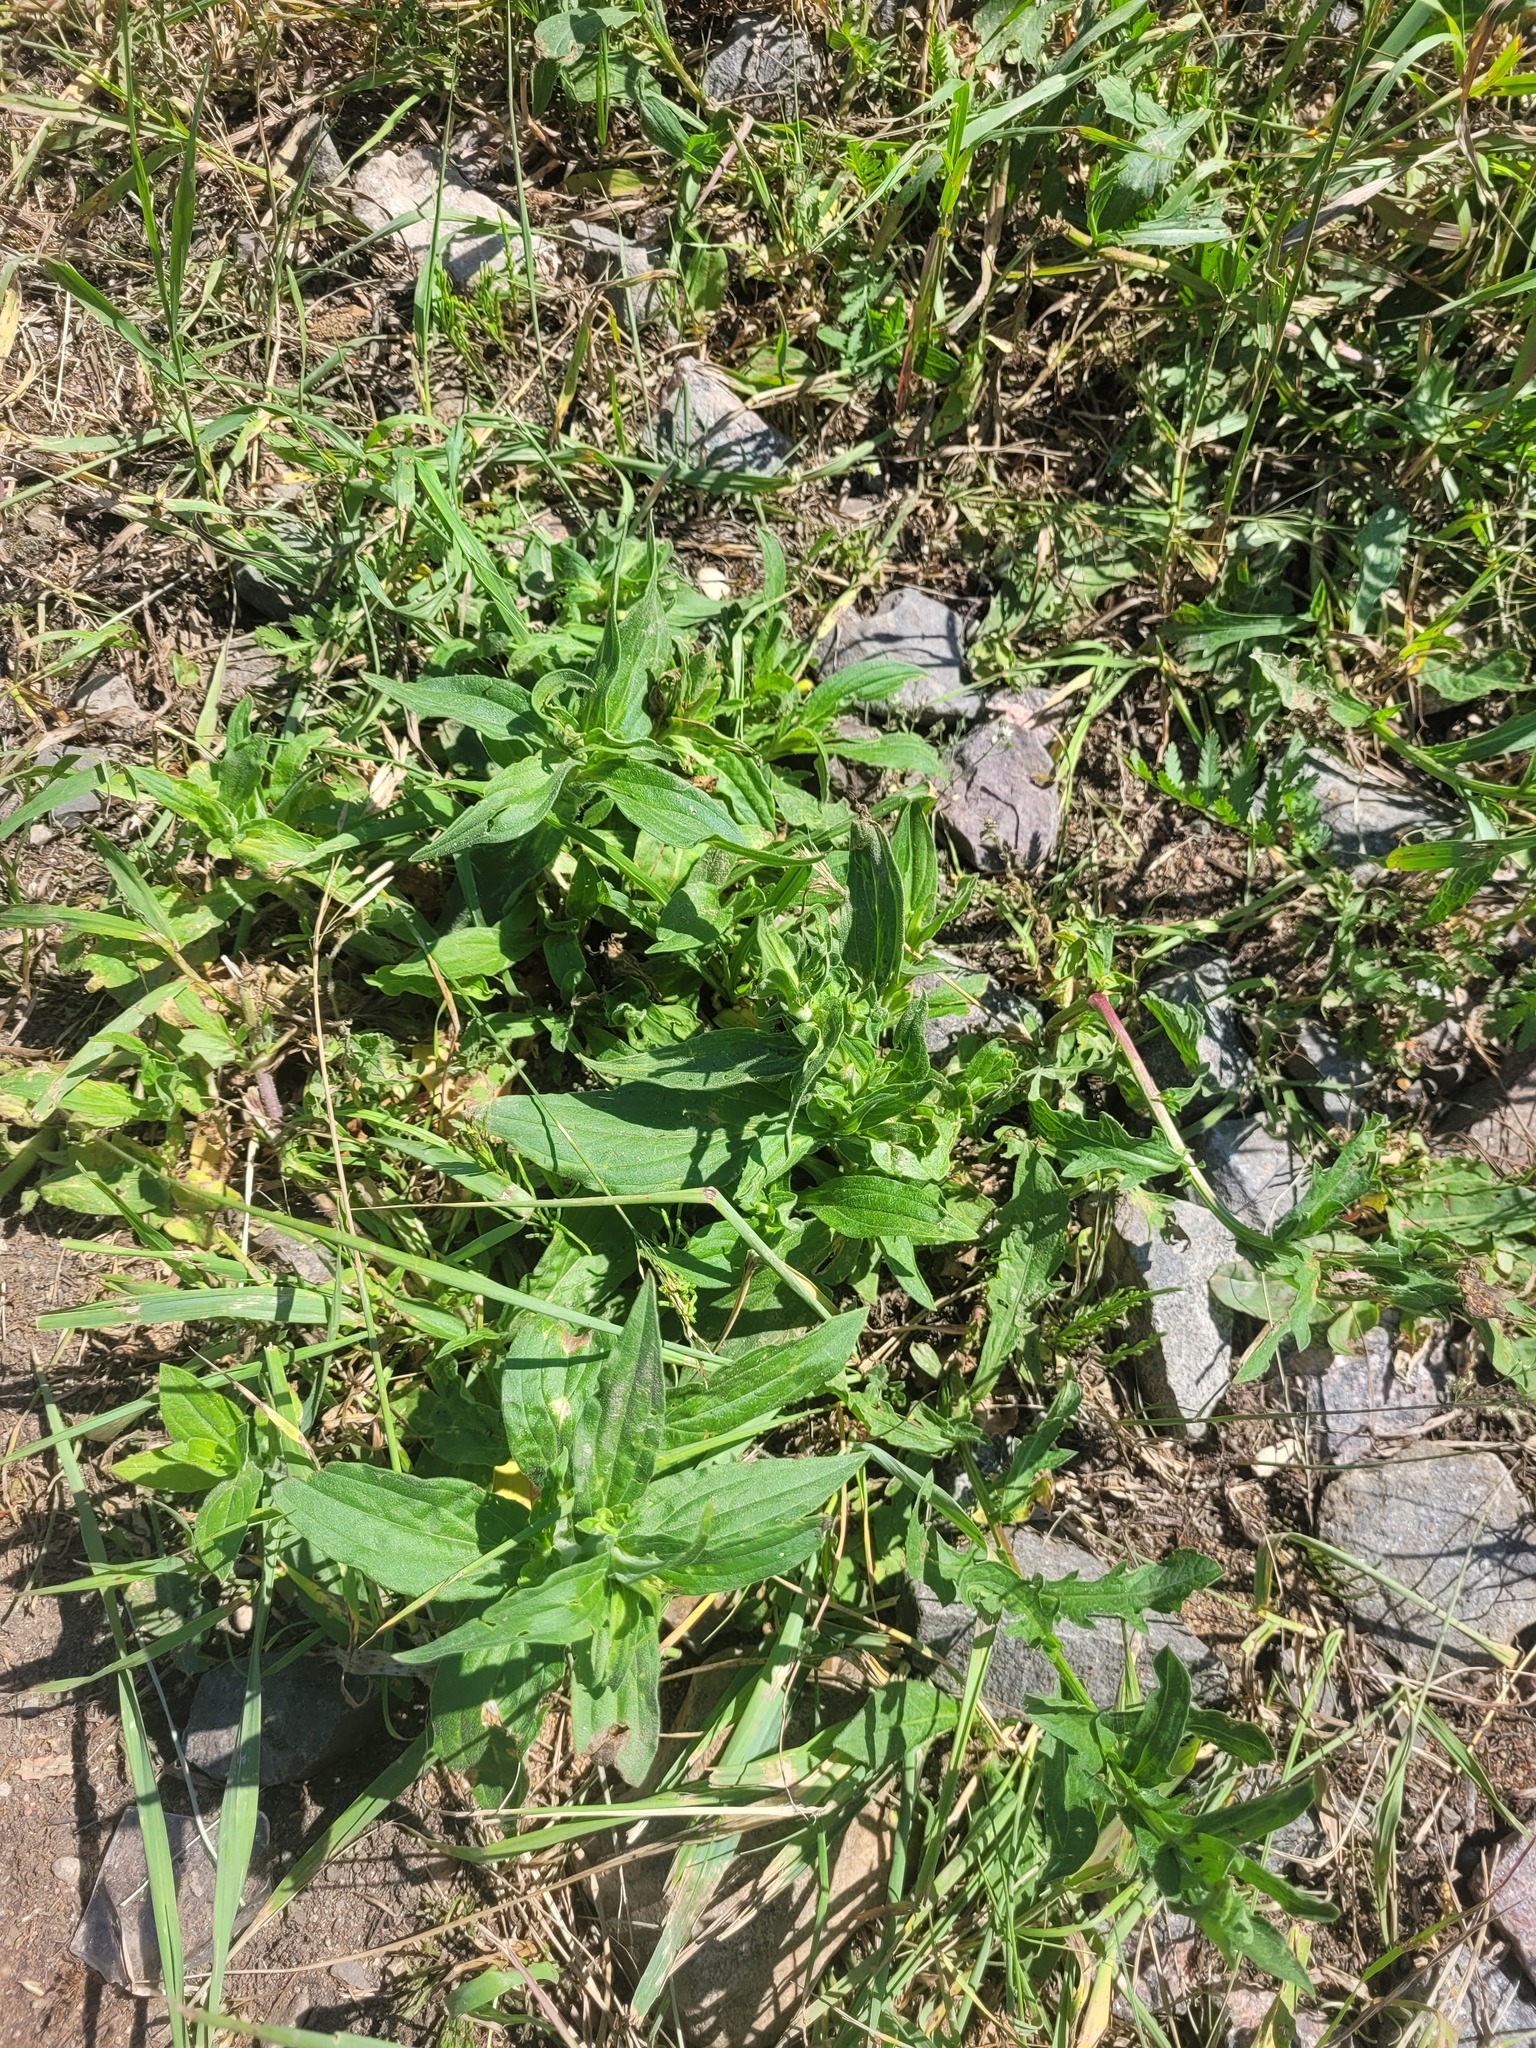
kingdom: Plantae
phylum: Tracheophyta
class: Magnoliopsida
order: Caryophyllales
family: Caryophyllaceae
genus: Silene
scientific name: Silene latifolia
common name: White campion
